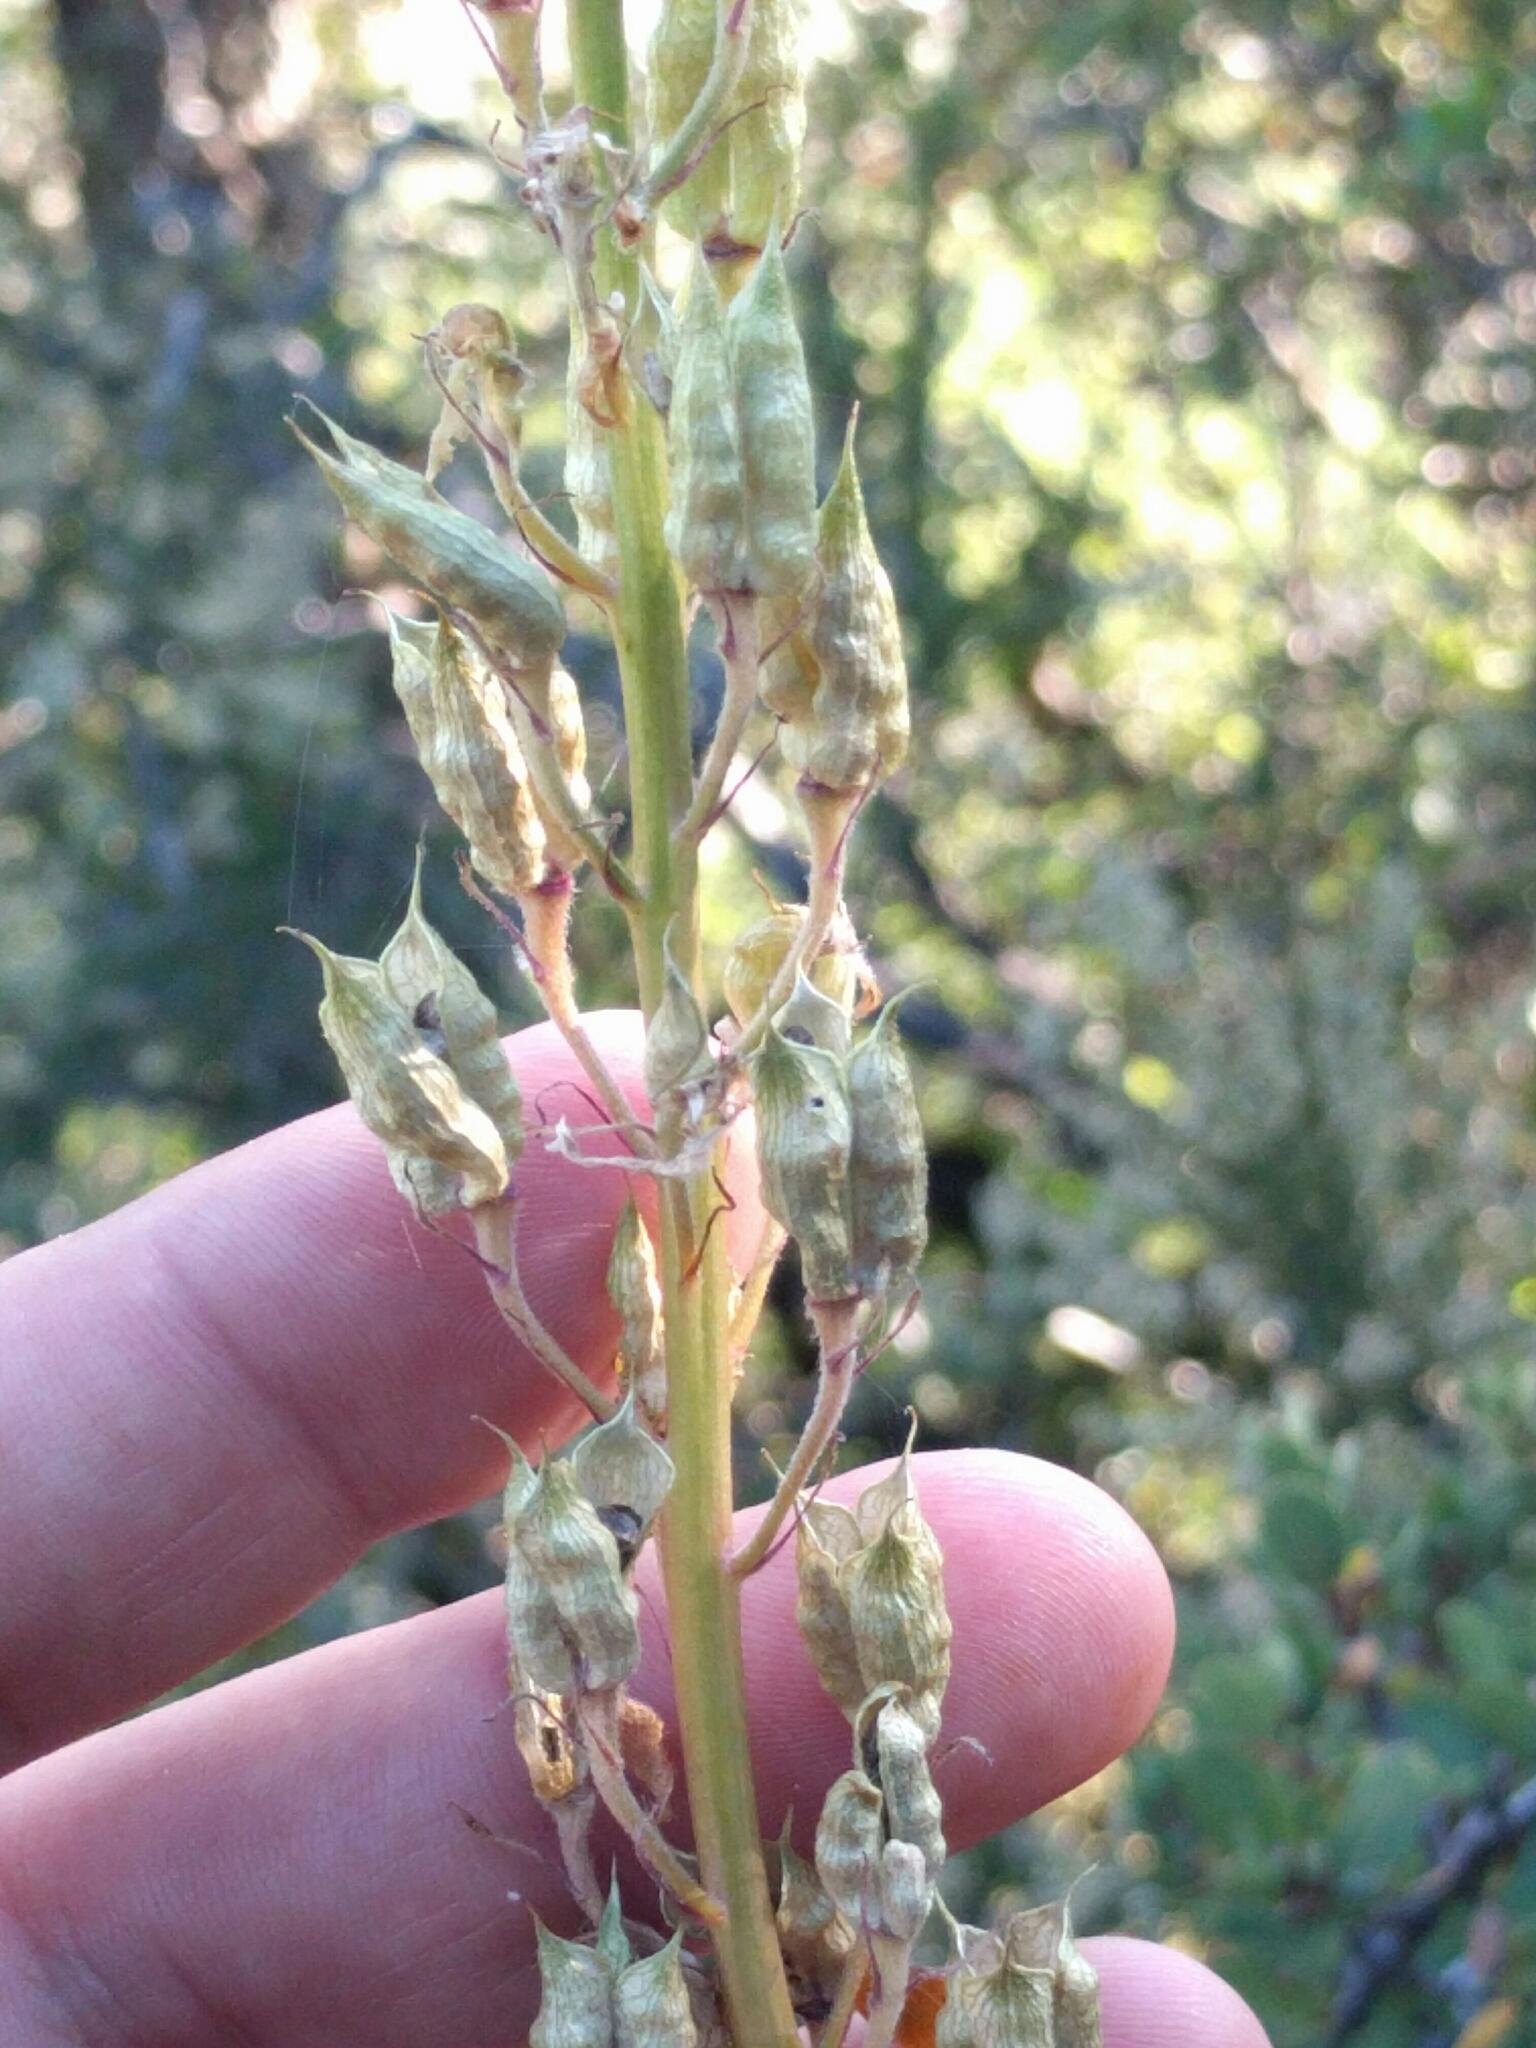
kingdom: Plantae
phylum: Tracheophyta
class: Magnoliopsida
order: Ranunculales
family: Ranunculaceae
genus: Delphinium
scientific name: Delphinium californicum
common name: California larkspur
